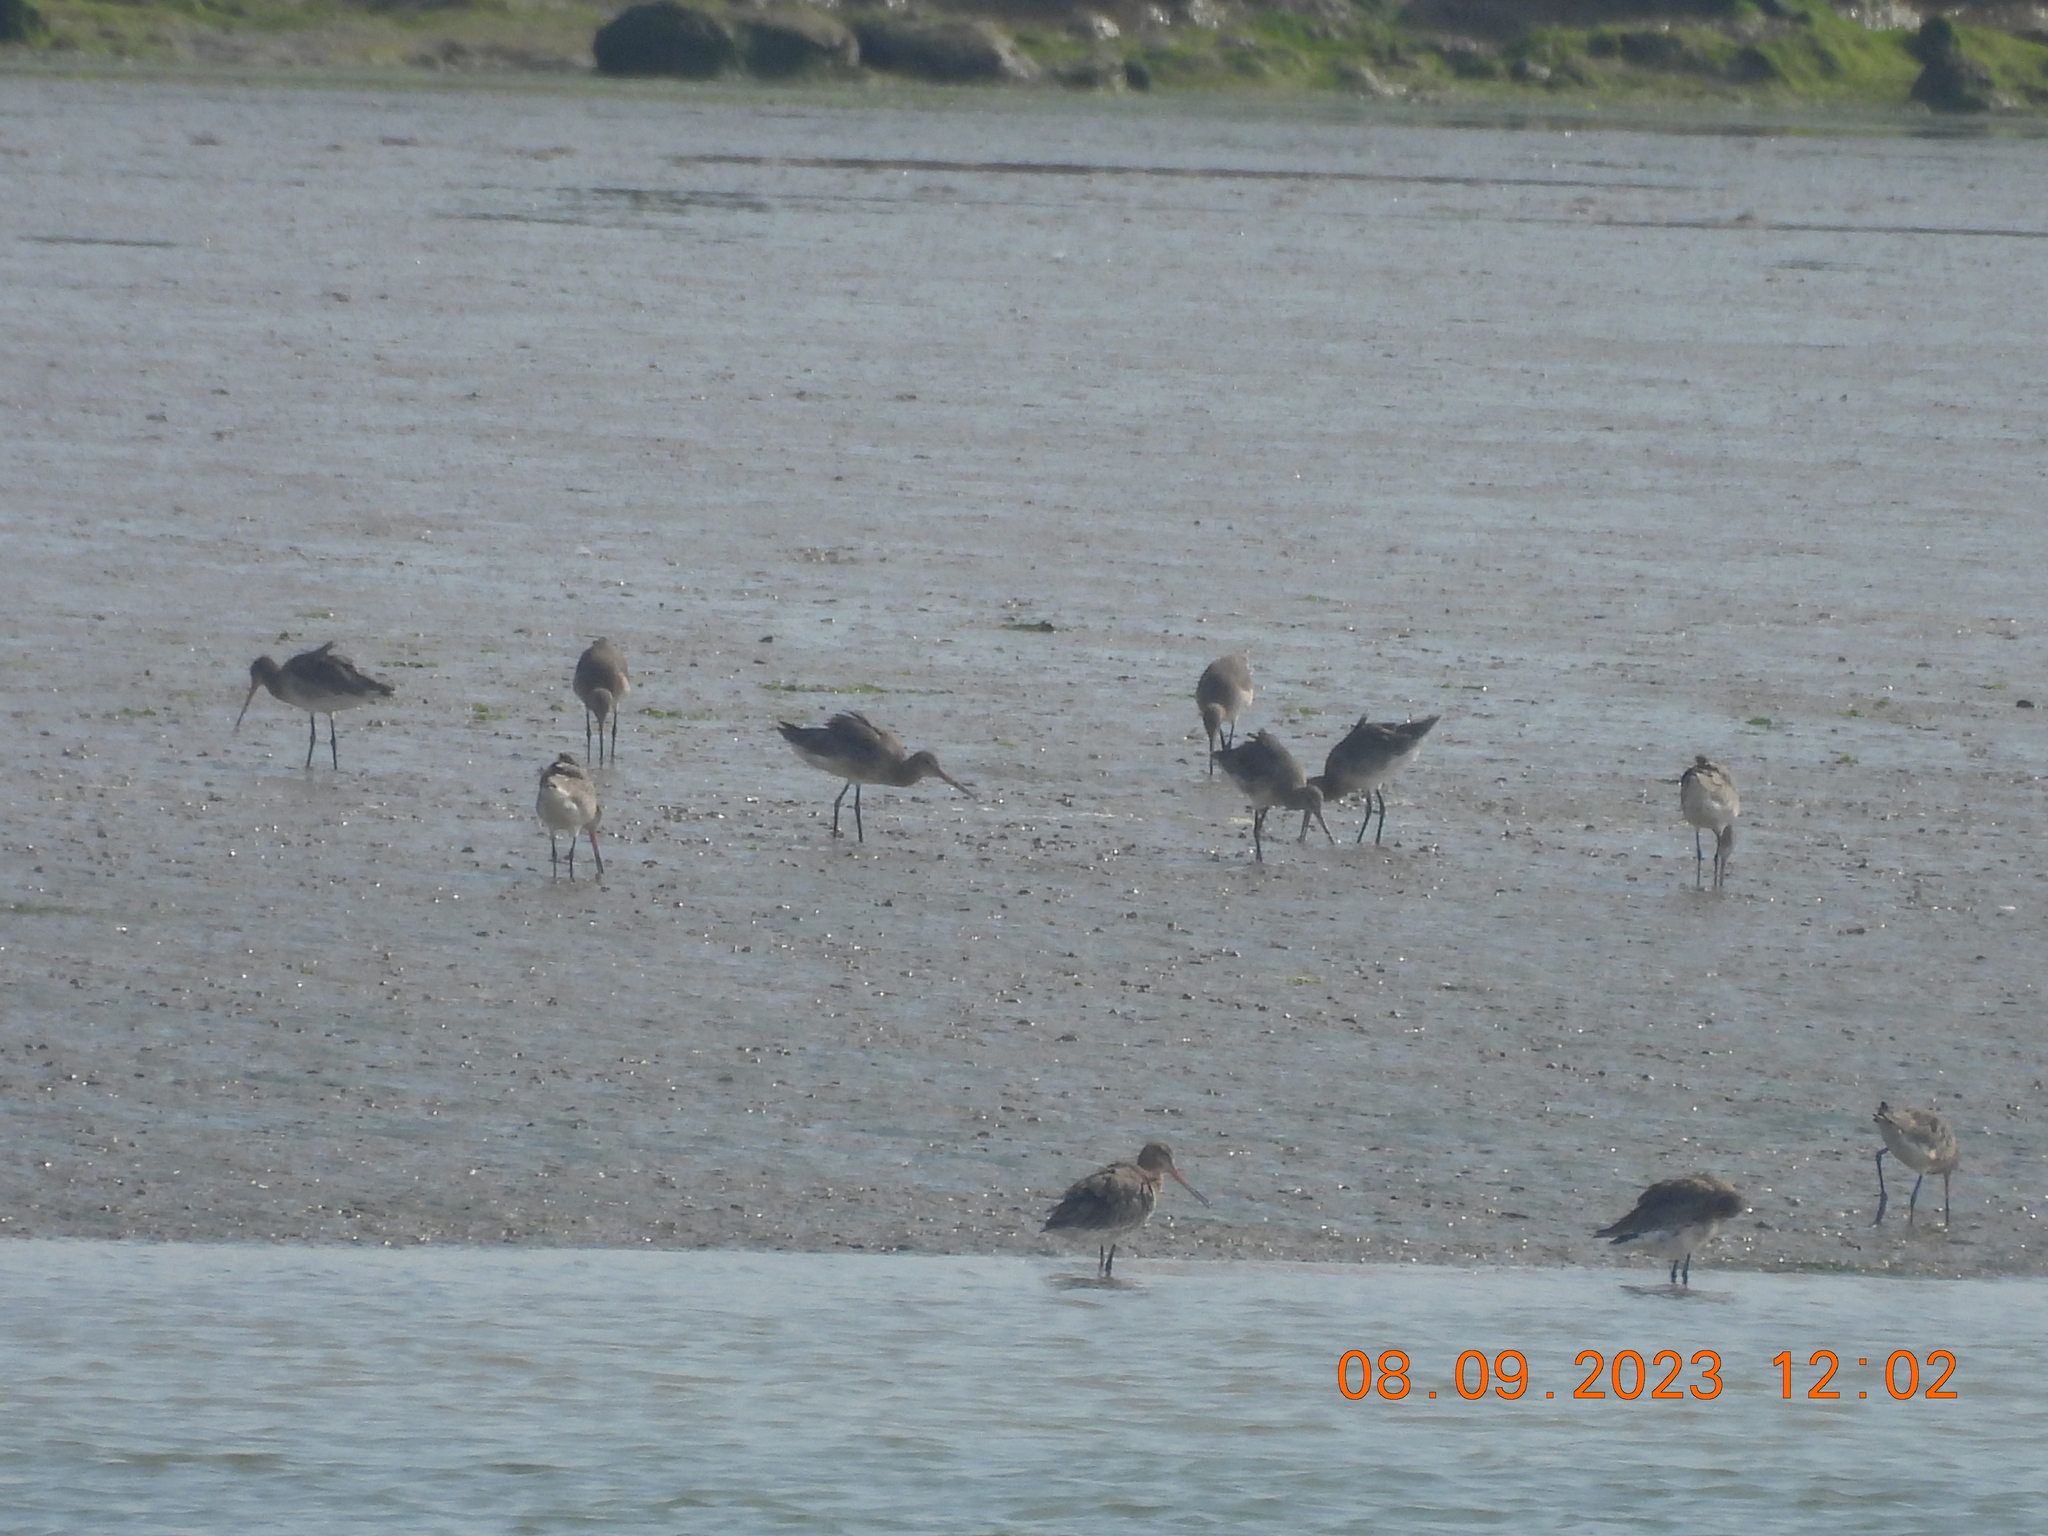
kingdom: Animalia
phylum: Chordata
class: Aves
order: Charadriiformes
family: Scolopacidae
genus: Limosa
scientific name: Limosa limosa
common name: Black-tailed godwit
